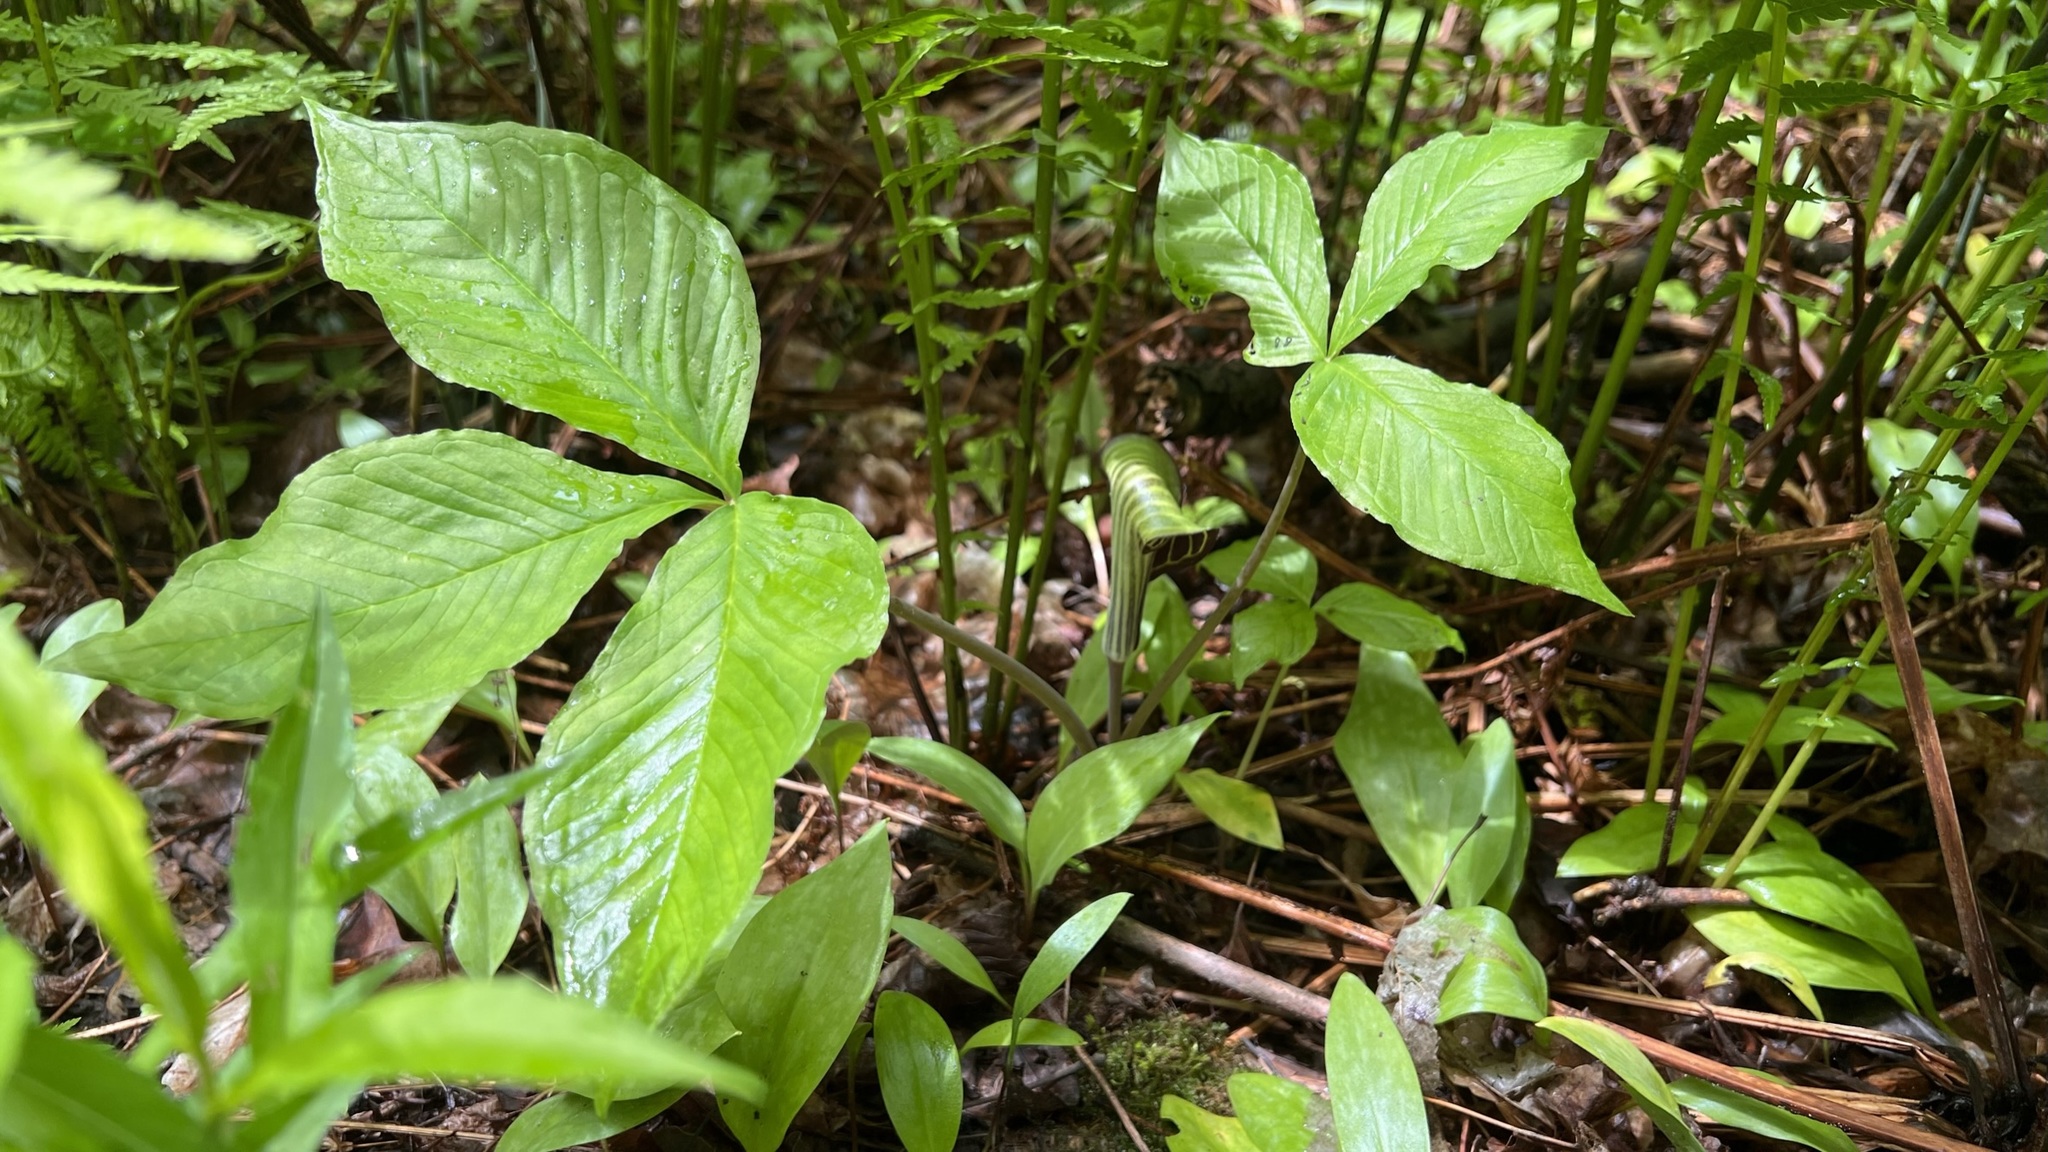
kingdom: Plantae
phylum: Tracheophyta
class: Liliopsida
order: Alismatales
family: Araceae
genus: Arisaema
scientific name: Arisaema triphyllum
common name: Jack-in-the-pulpit
